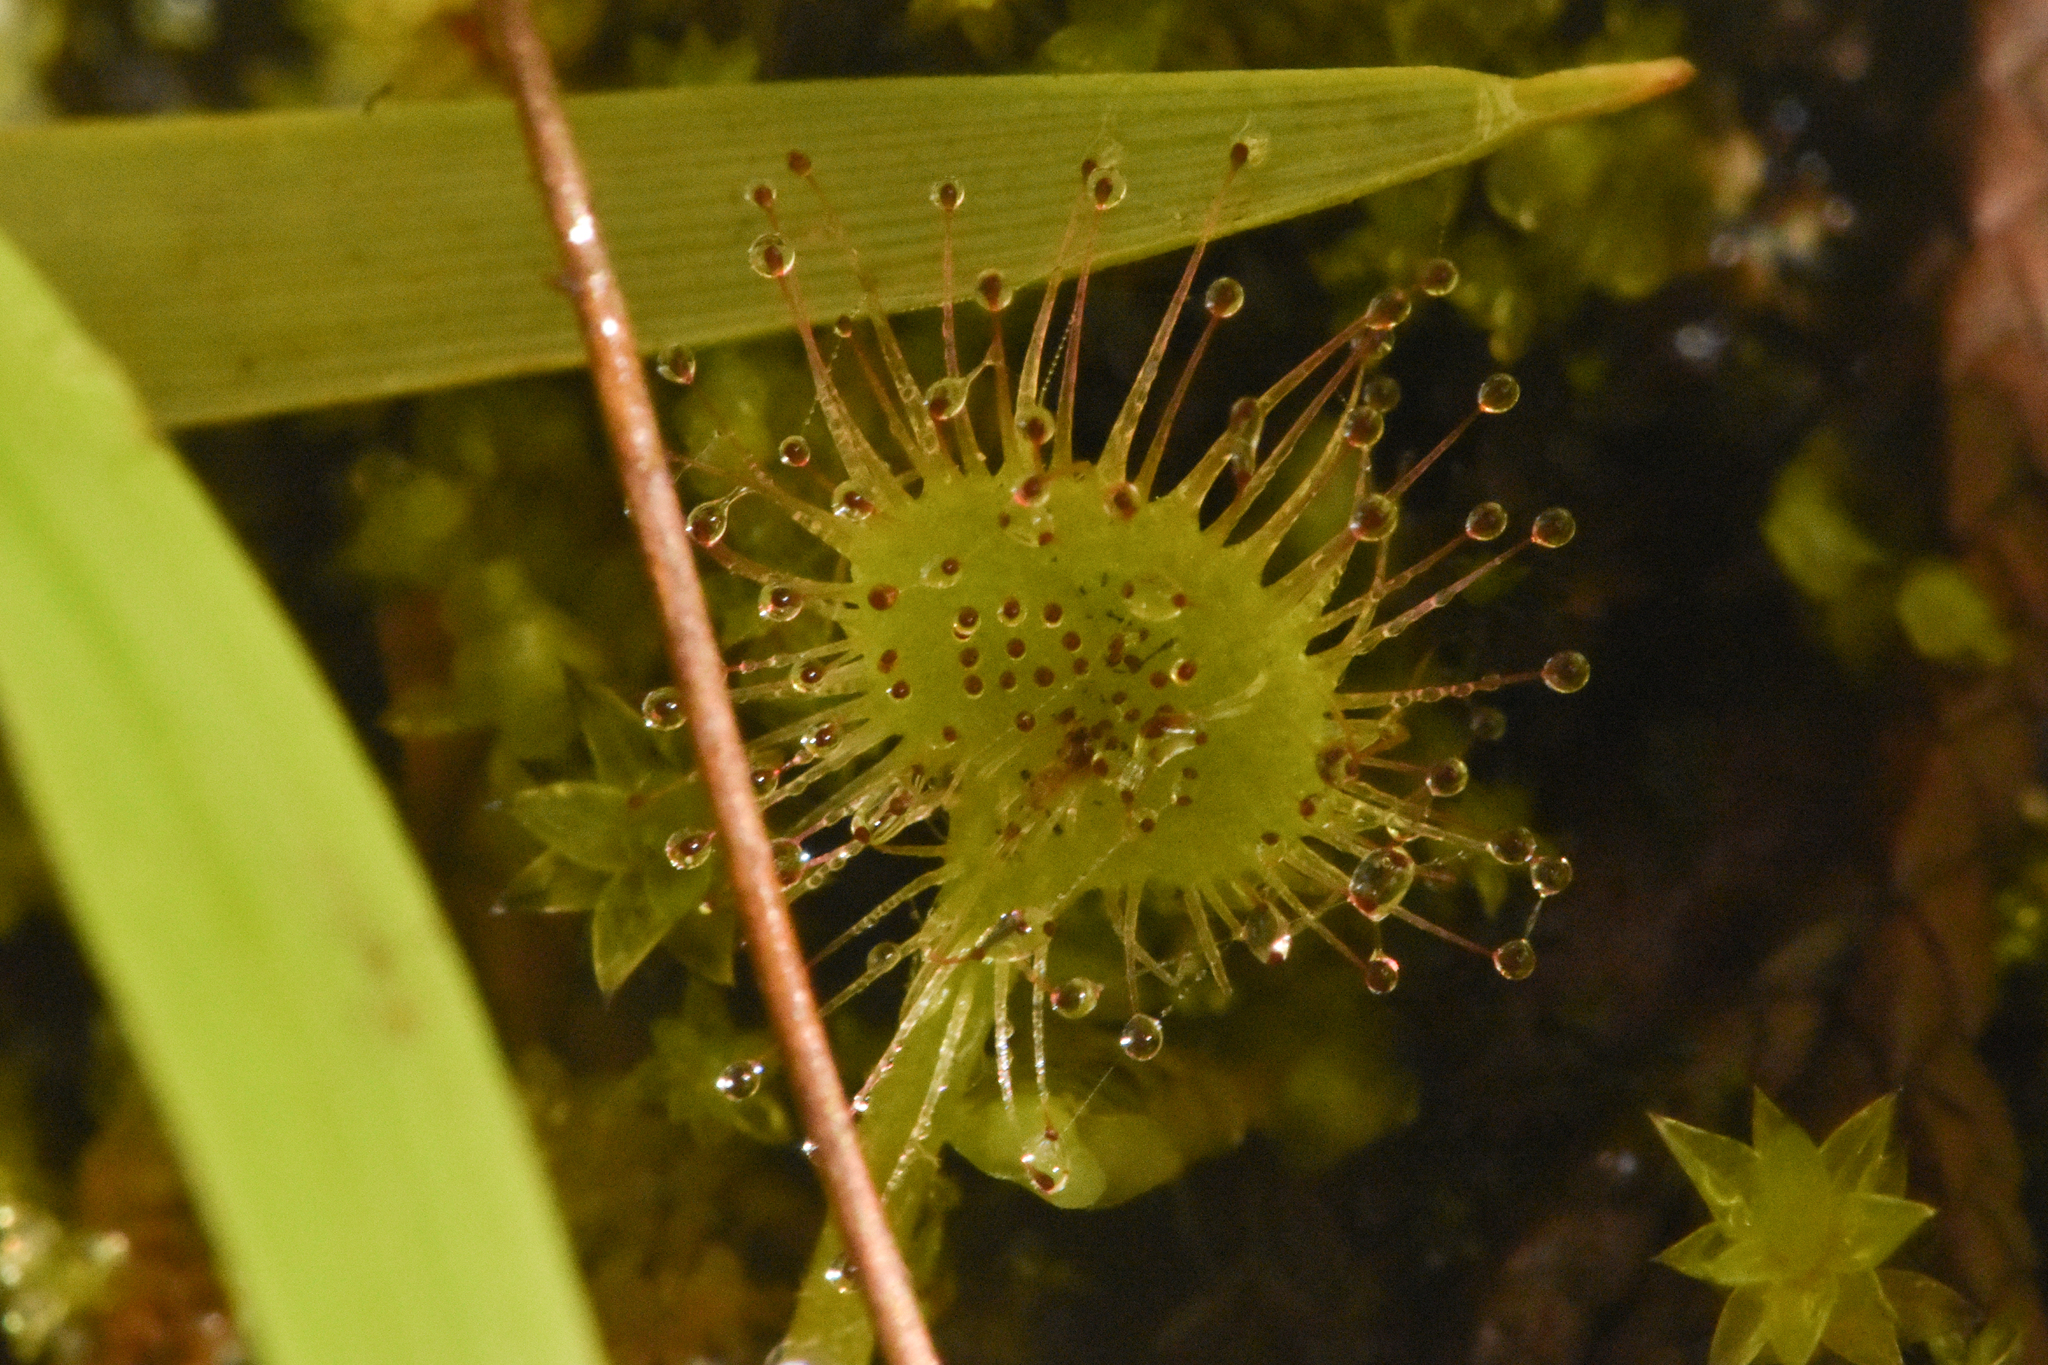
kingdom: Plantae
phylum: Tracheophyta
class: Magnoliopsida
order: Caryophyllales
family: Droseraceae
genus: Drosera
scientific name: Drosera rotundifolia
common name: Round-leaved sundew
